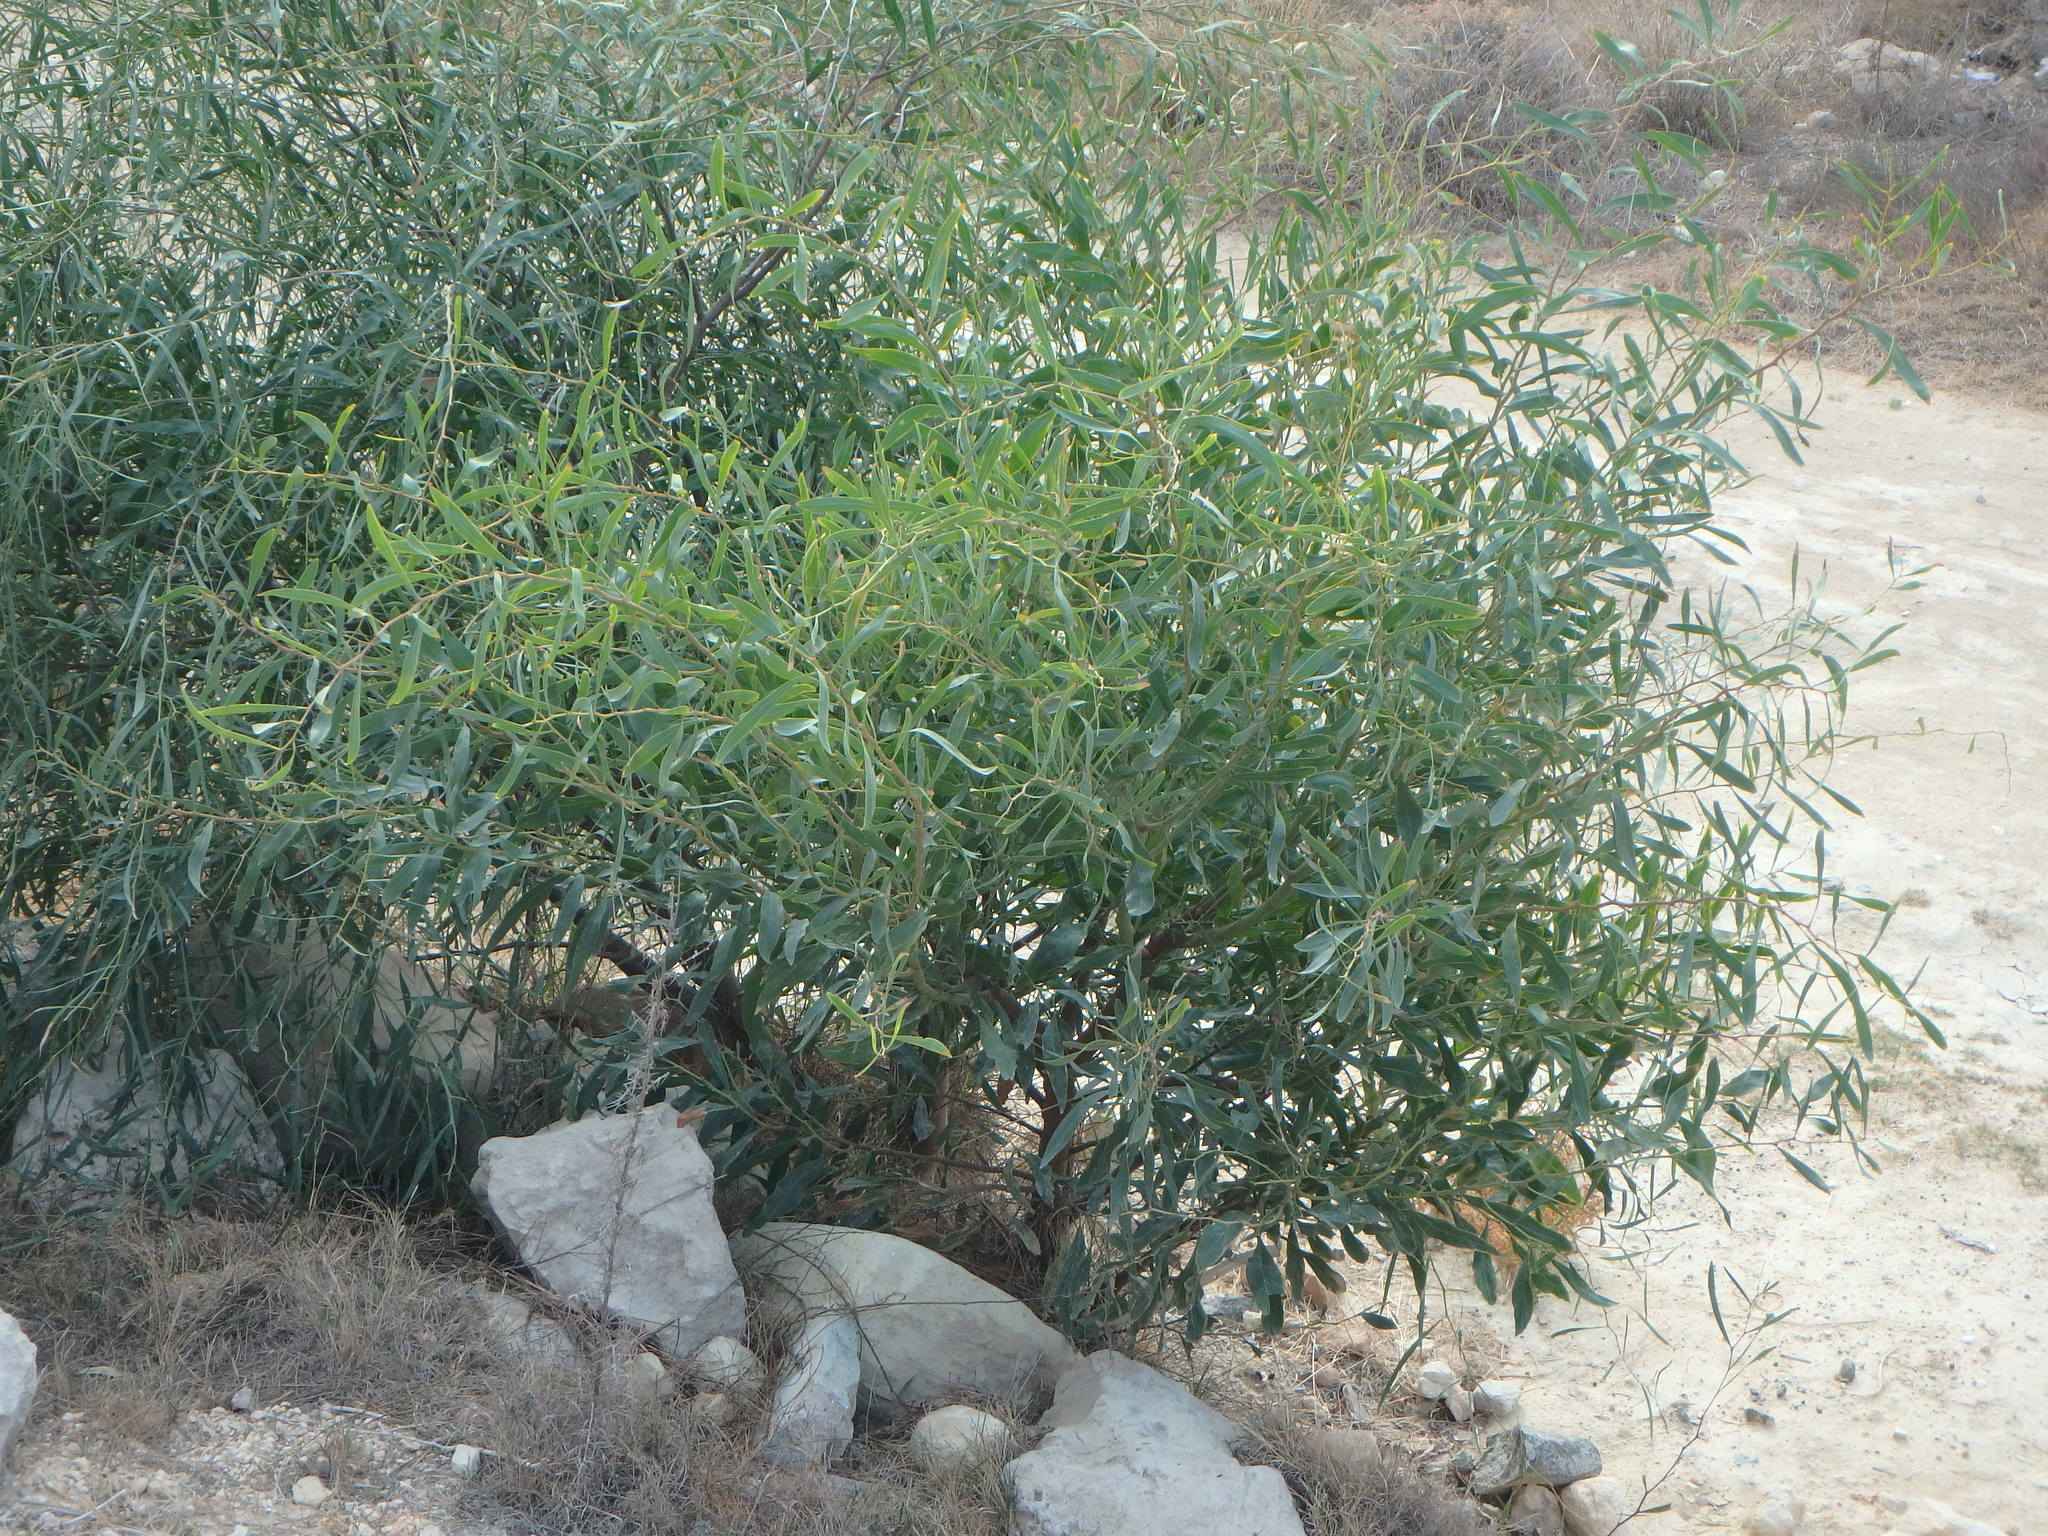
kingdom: Plantae
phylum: Tracheophyta
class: Magnoliopsida
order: Fabales
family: Fabaceae
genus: Acacia
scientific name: Acacia saligna
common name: Orange wattle
